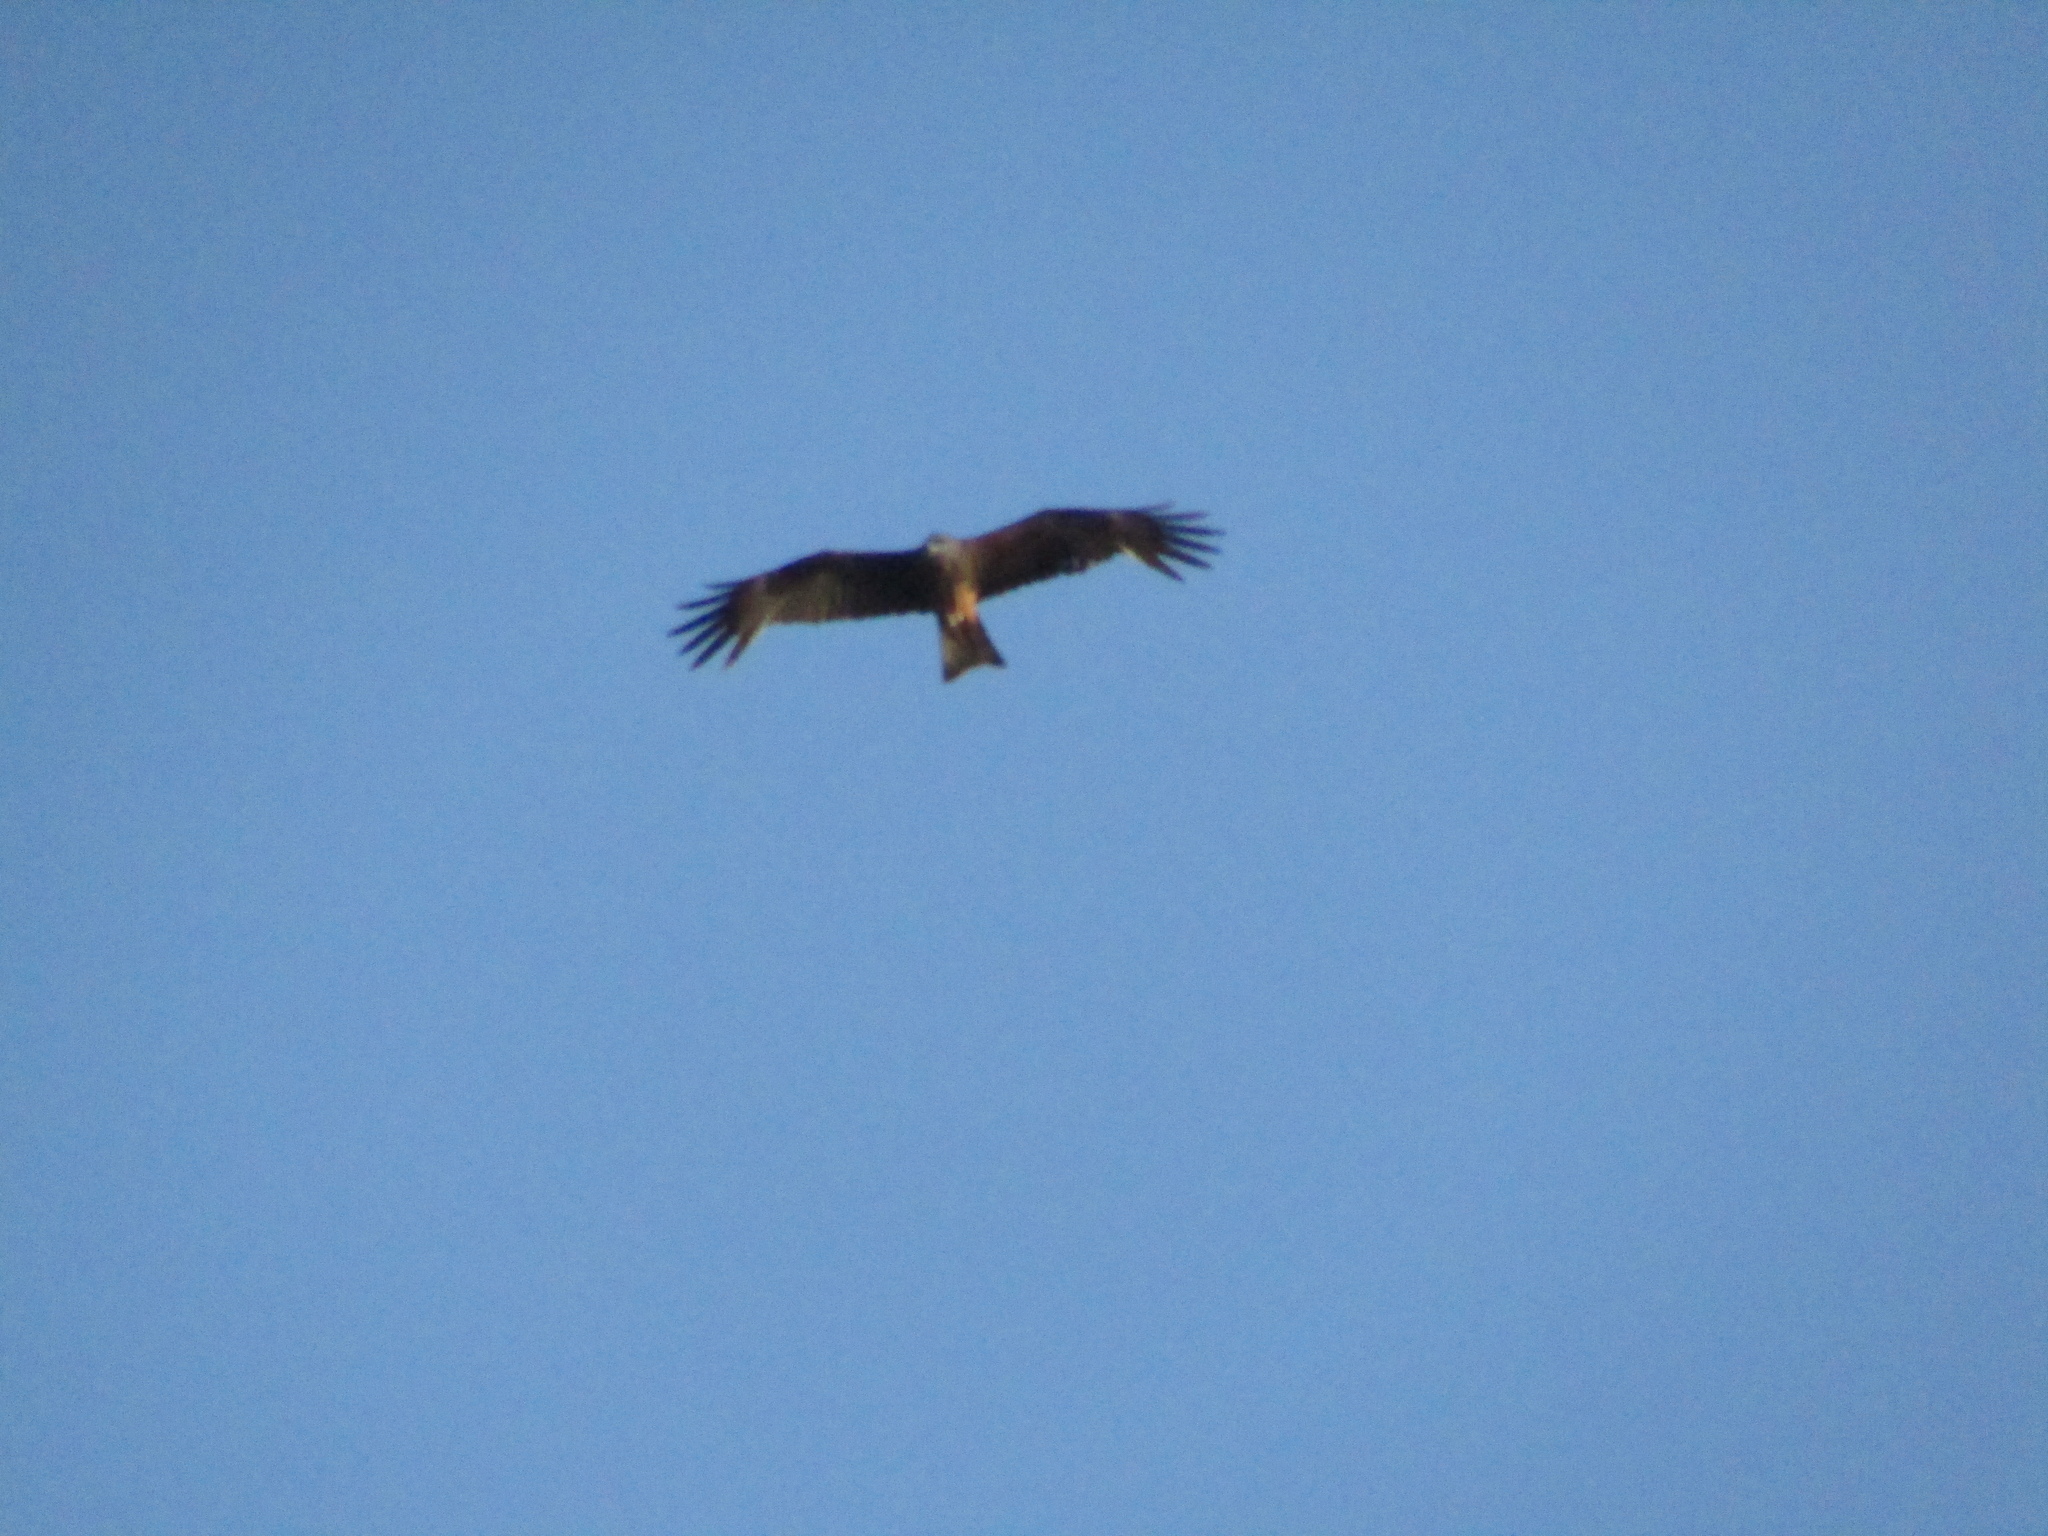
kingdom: Animalia
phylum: Chordata
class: Aves
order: Accipitriformes
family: Accipitridae
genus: Milvus
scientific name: Milvus migrans
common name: Black kite
